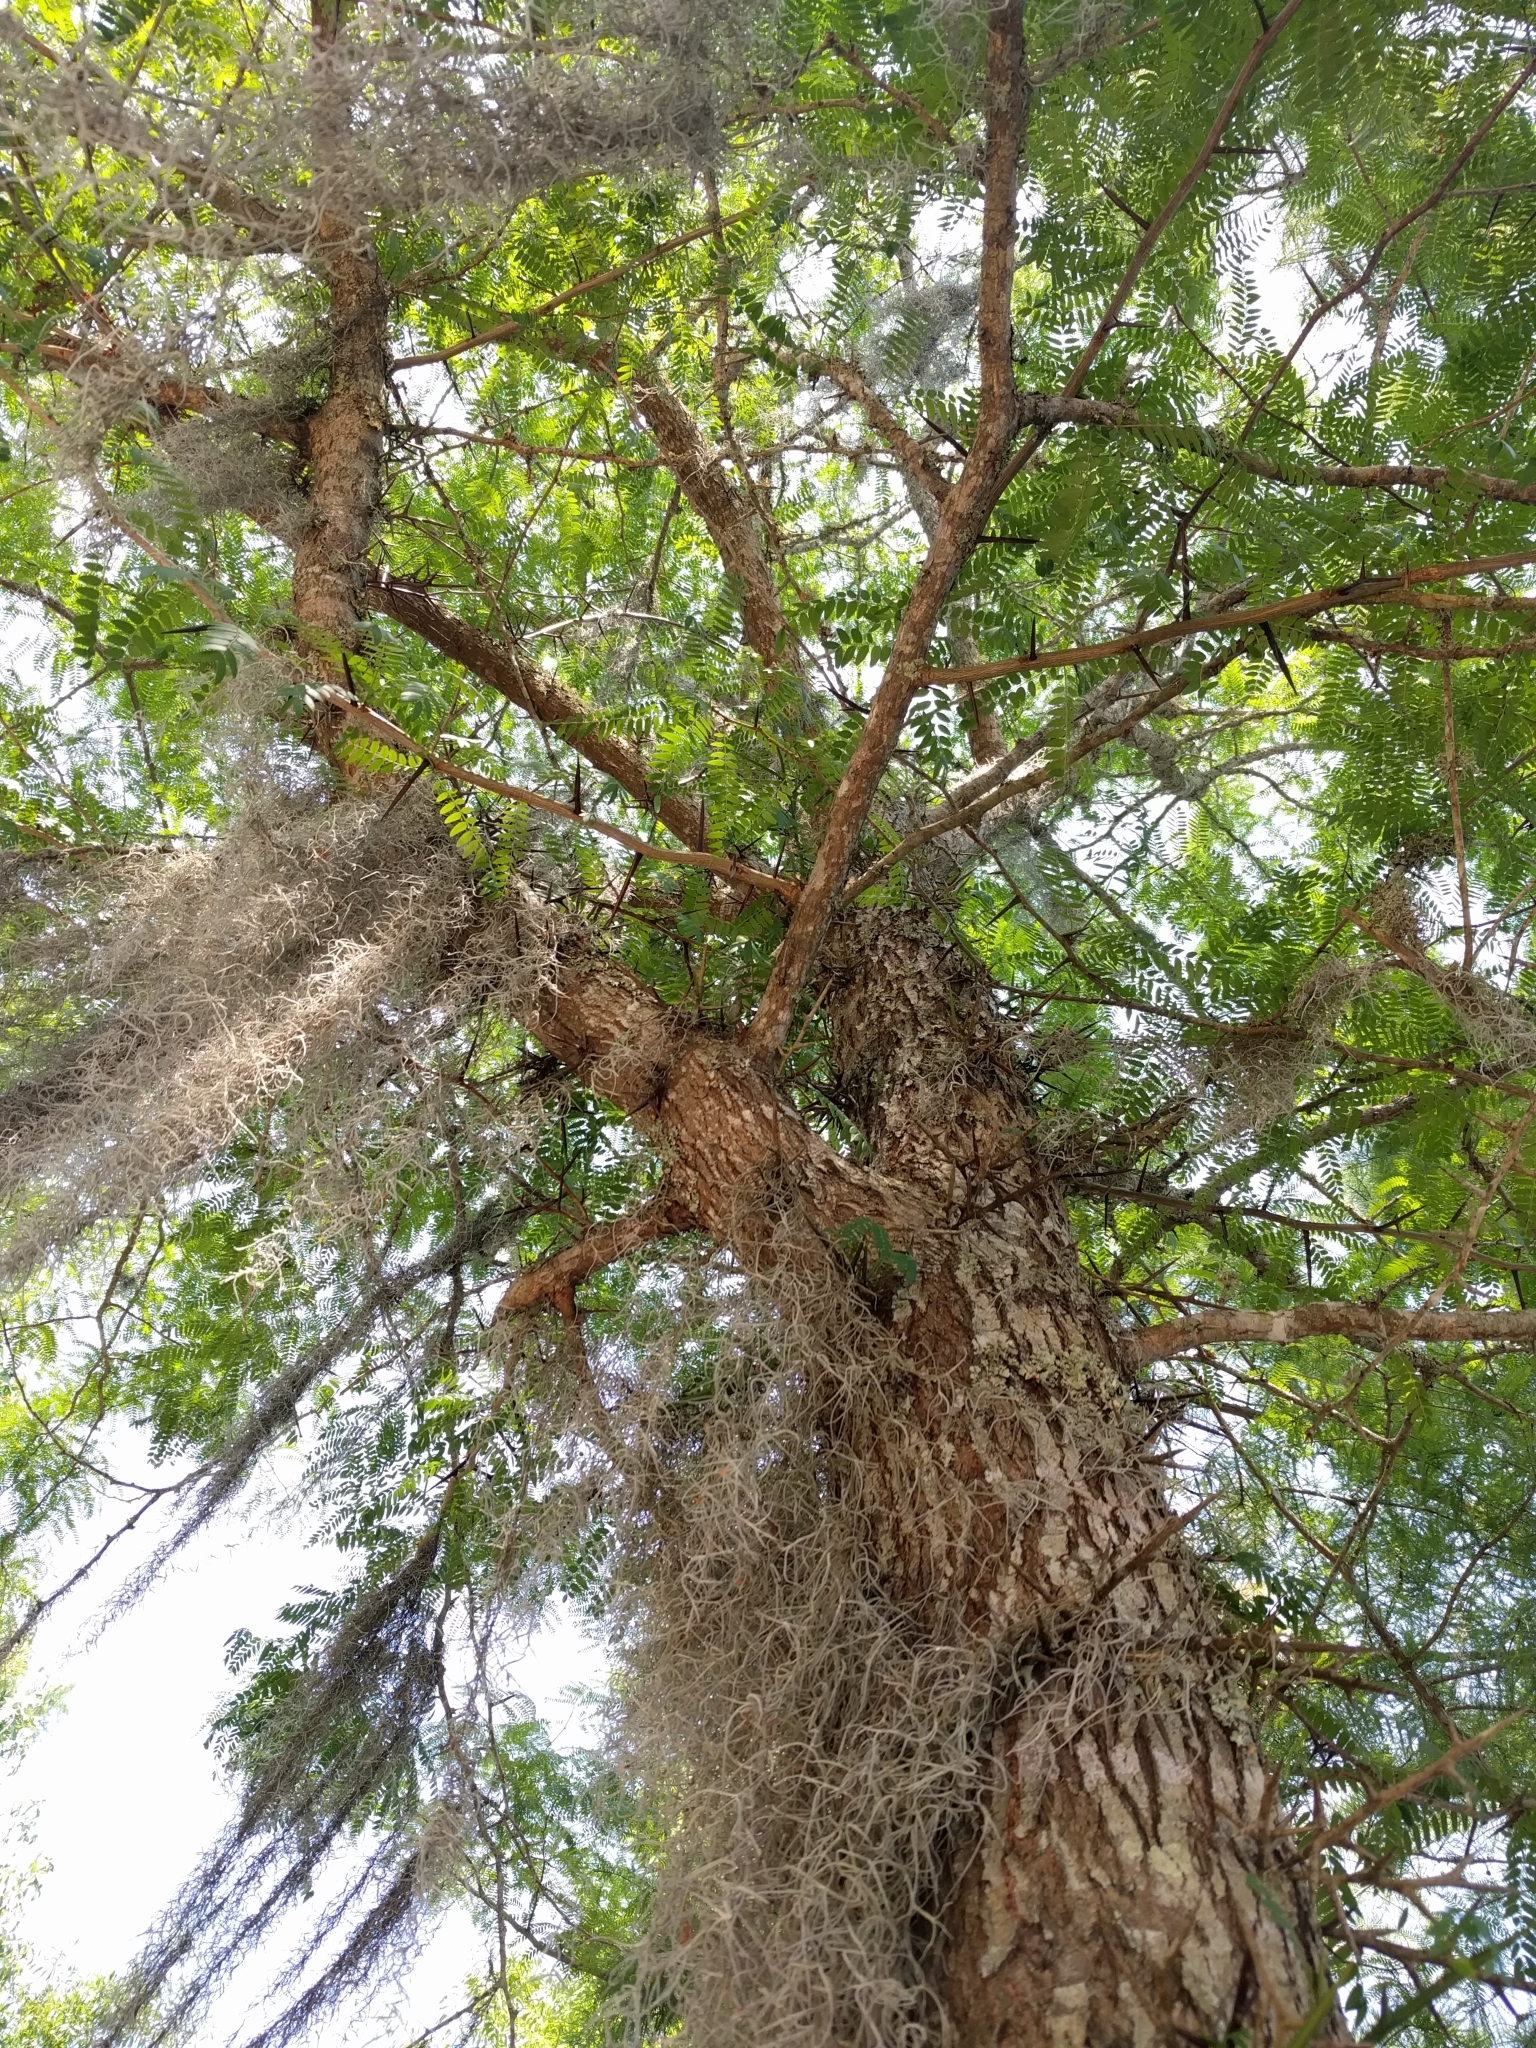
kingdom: Plantae
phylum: Tracheophyta
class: Magnoliopsida
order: Fabales
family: Fabaceae
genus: Gleditsia
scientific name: Gleditsia triacanthos
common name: Common honeylocust
